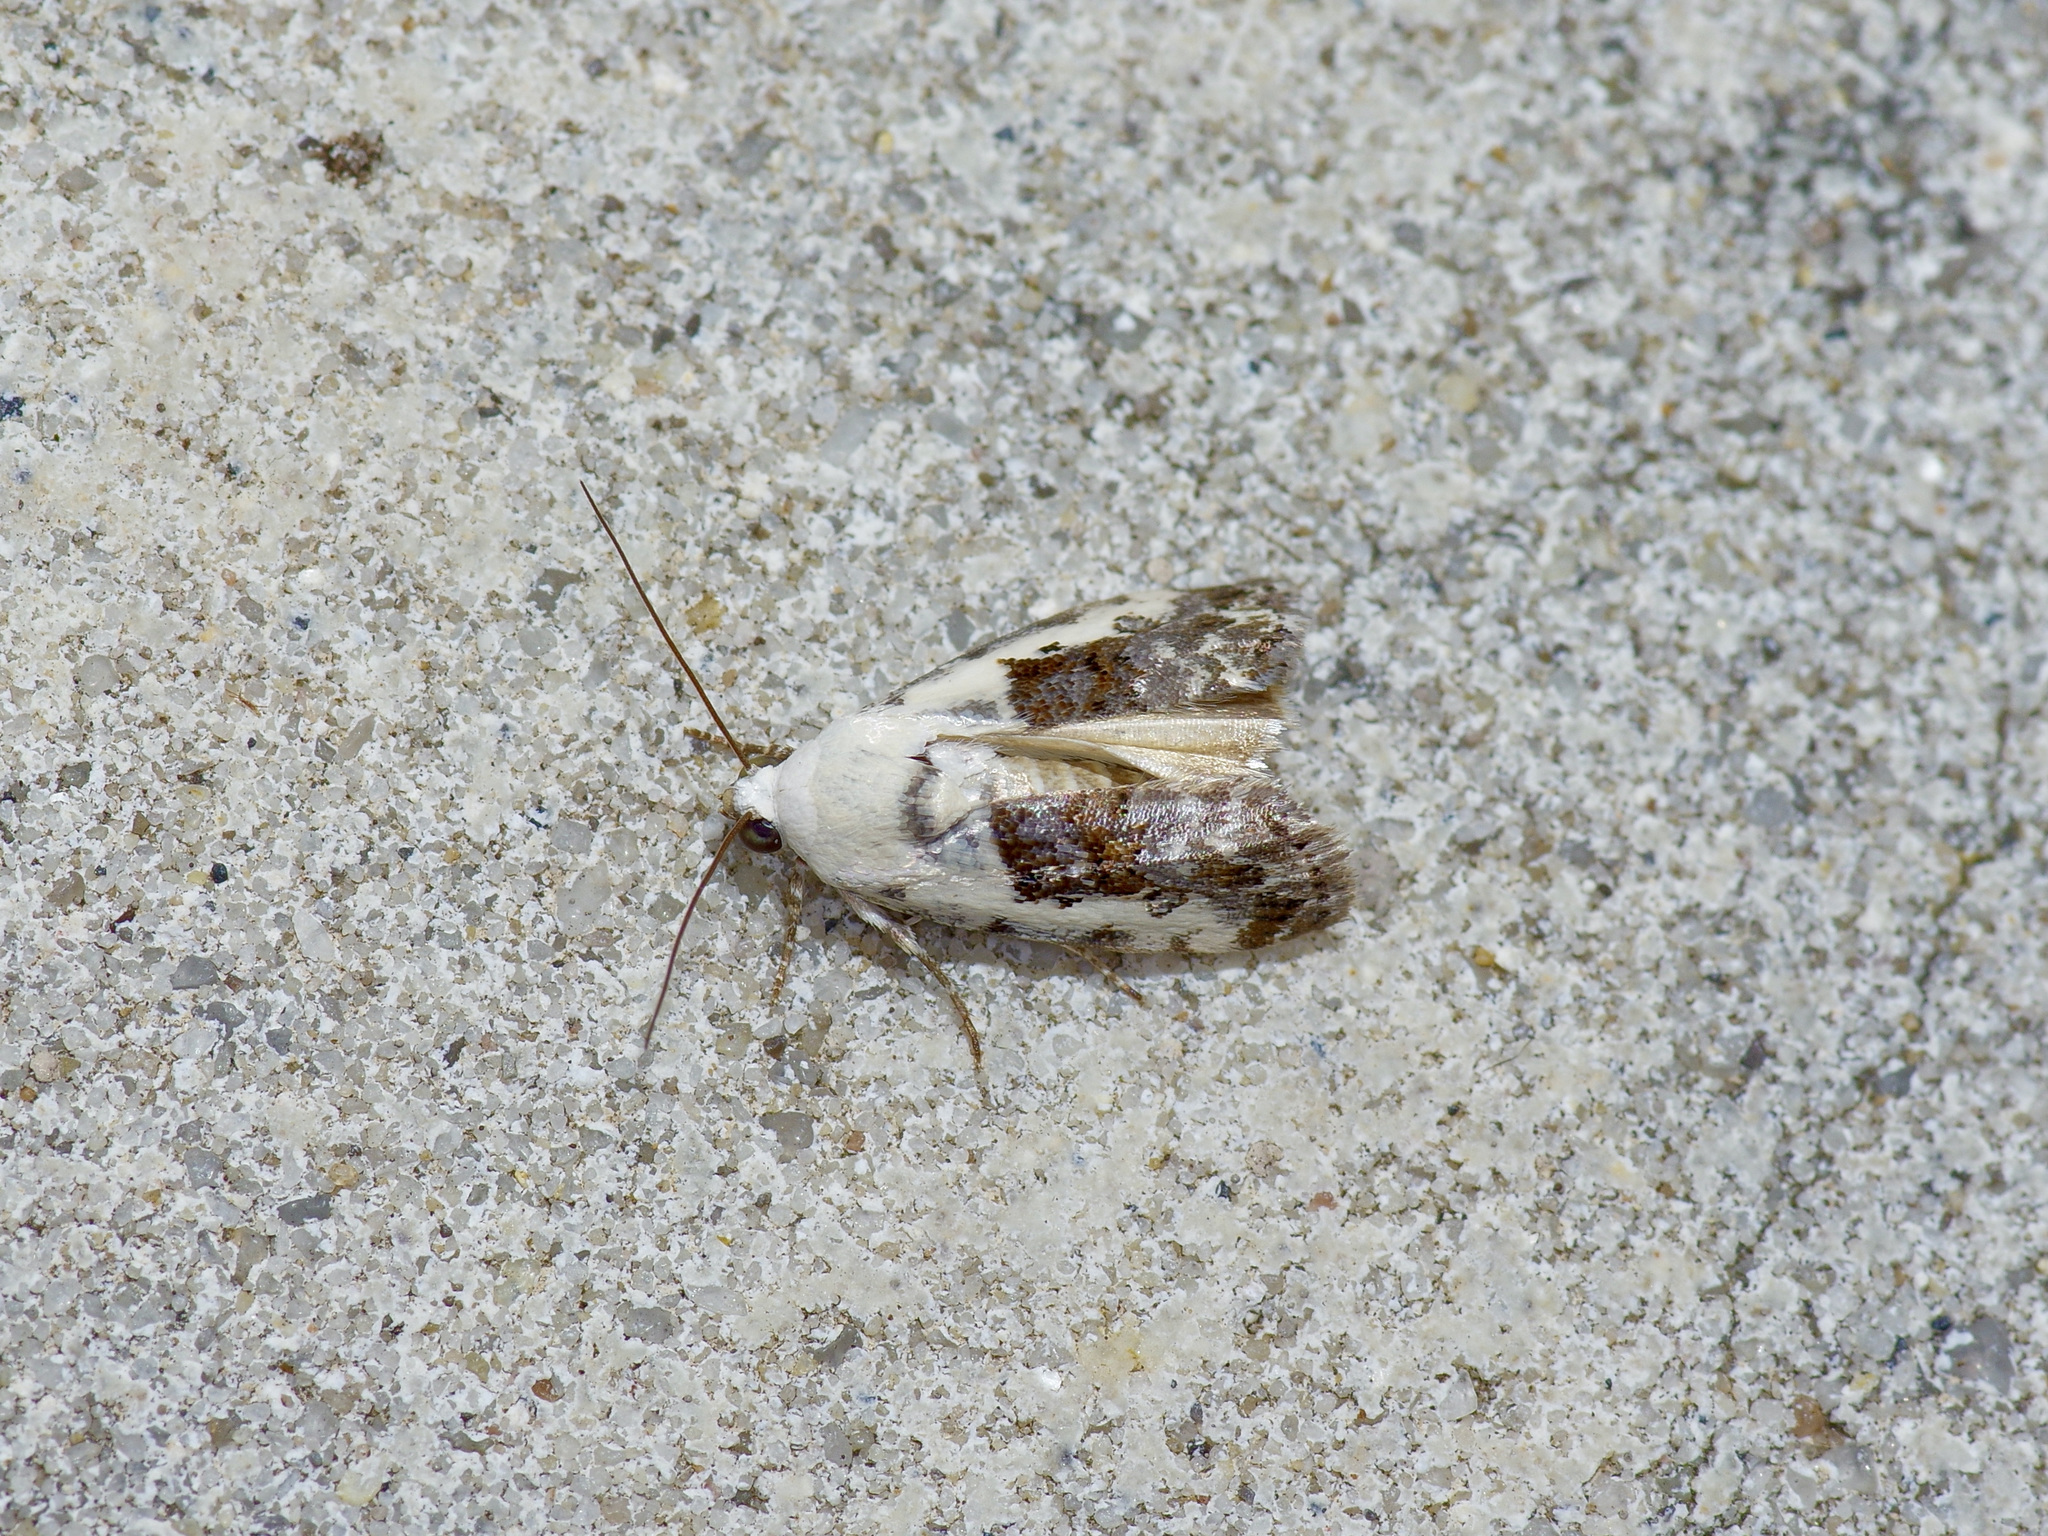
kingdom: Animalia
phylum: Arthropoda
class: Insecta
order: Lepidoptera
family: Noctuidae
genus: Acontia
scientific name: Acontia aprica
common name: Nun
